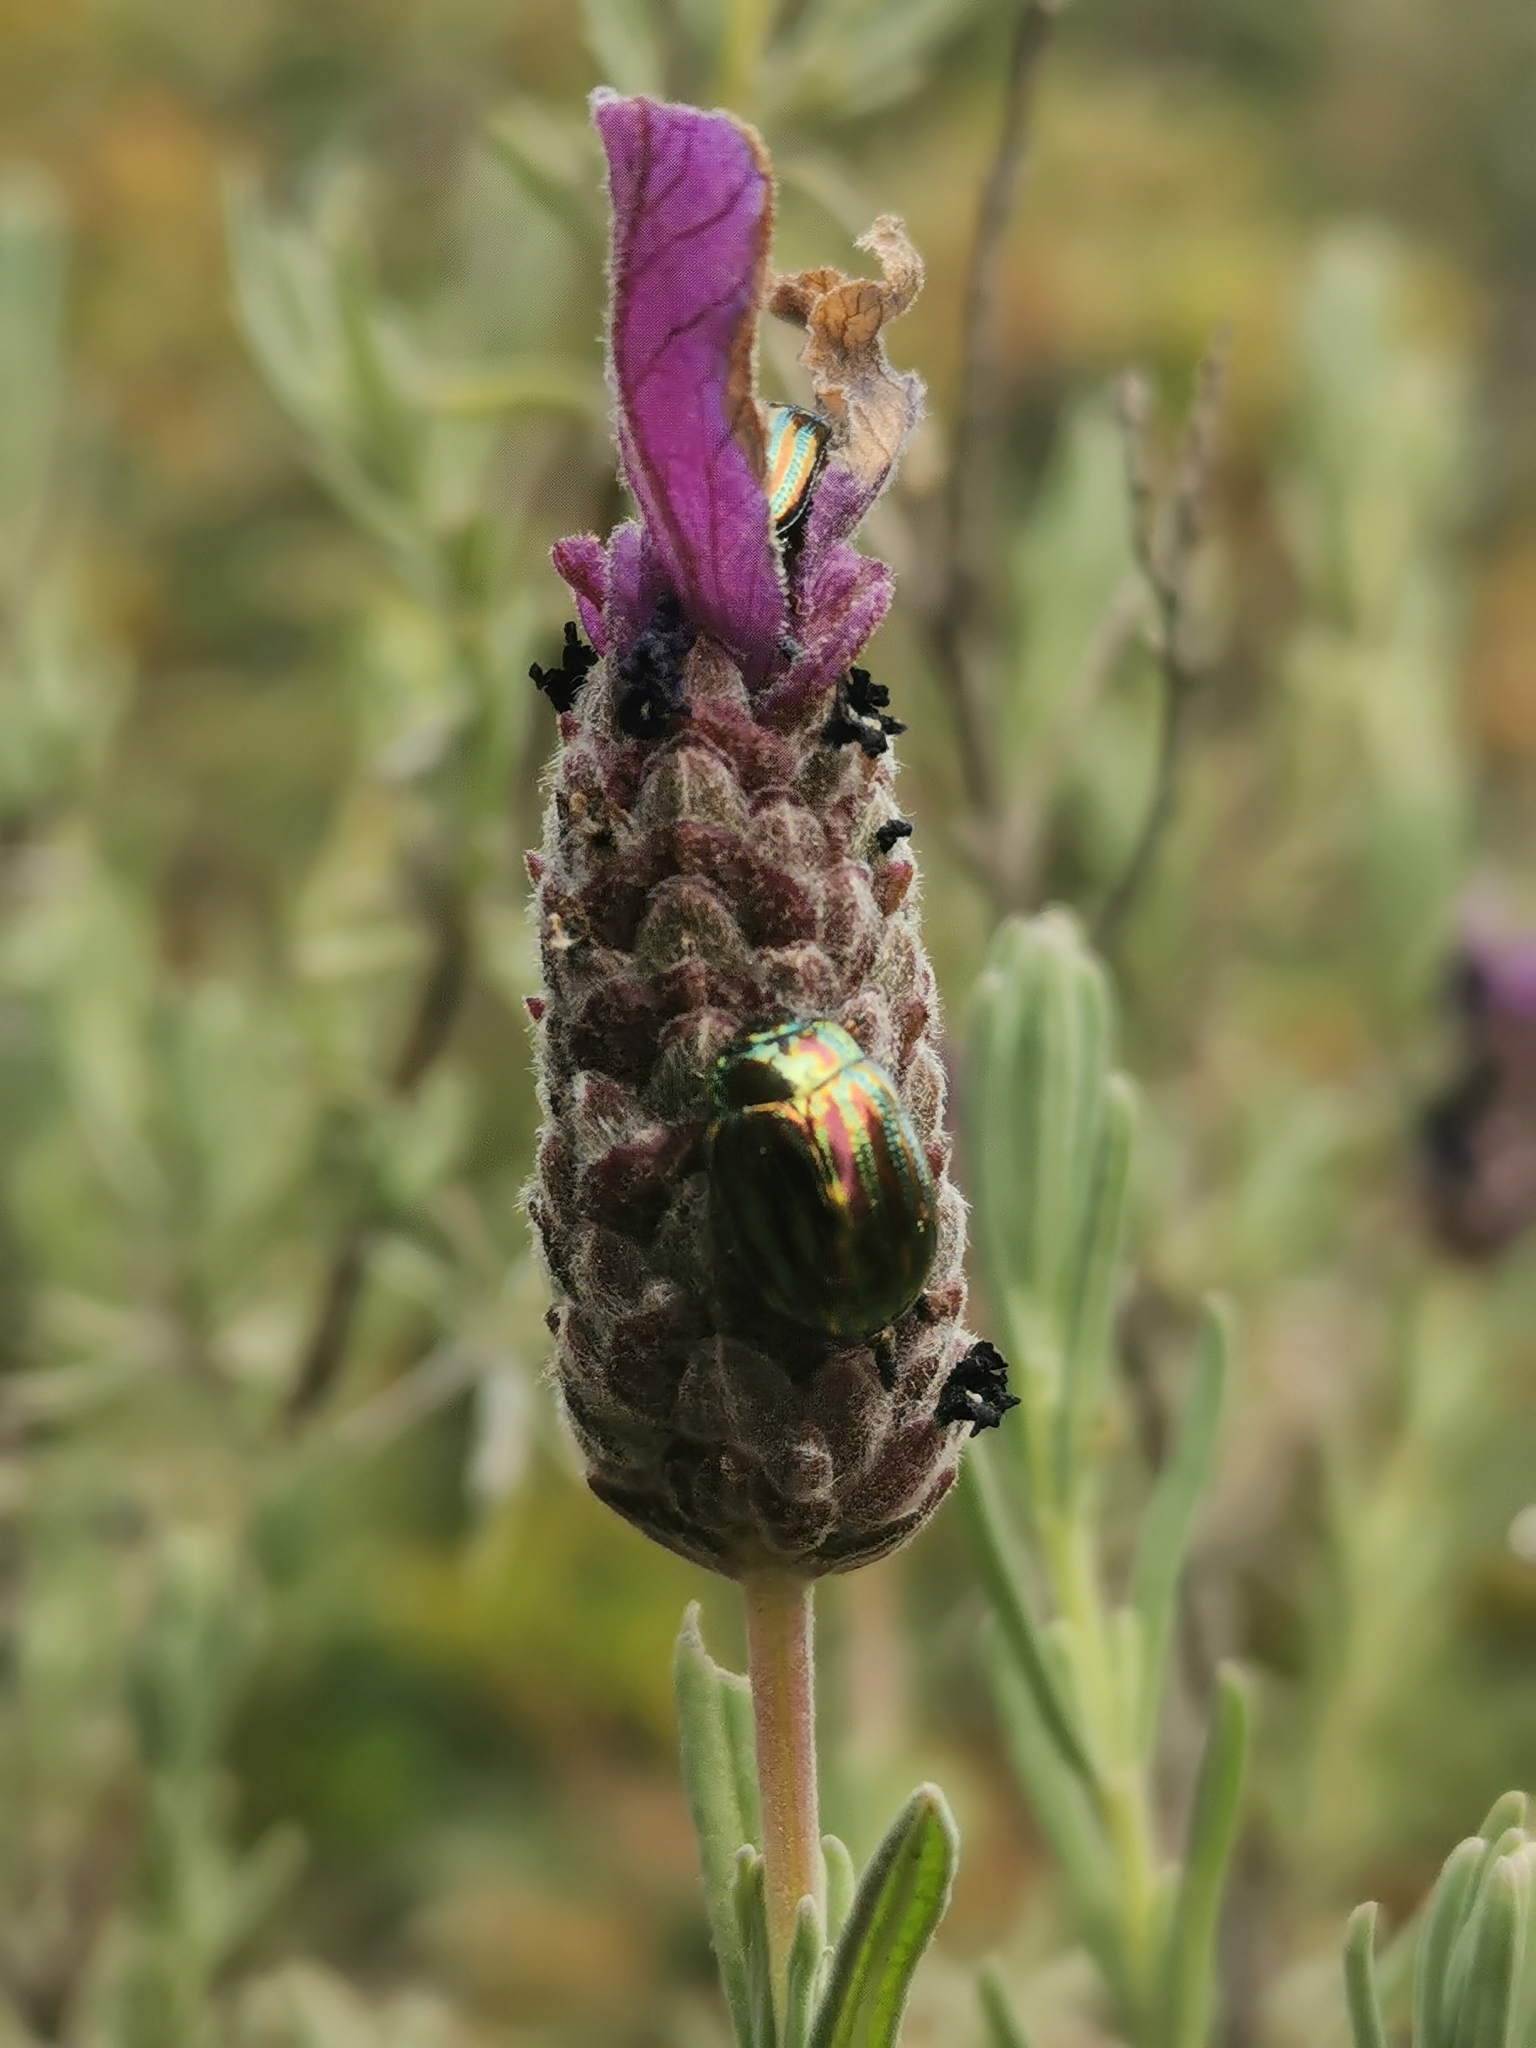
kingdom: Animalia
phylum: Arthropoda
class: Insecta
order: Coleoptera
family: Chrysomelidae
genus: Chrysolina
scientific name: Chrysolina americana
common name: Rosemary beetle
